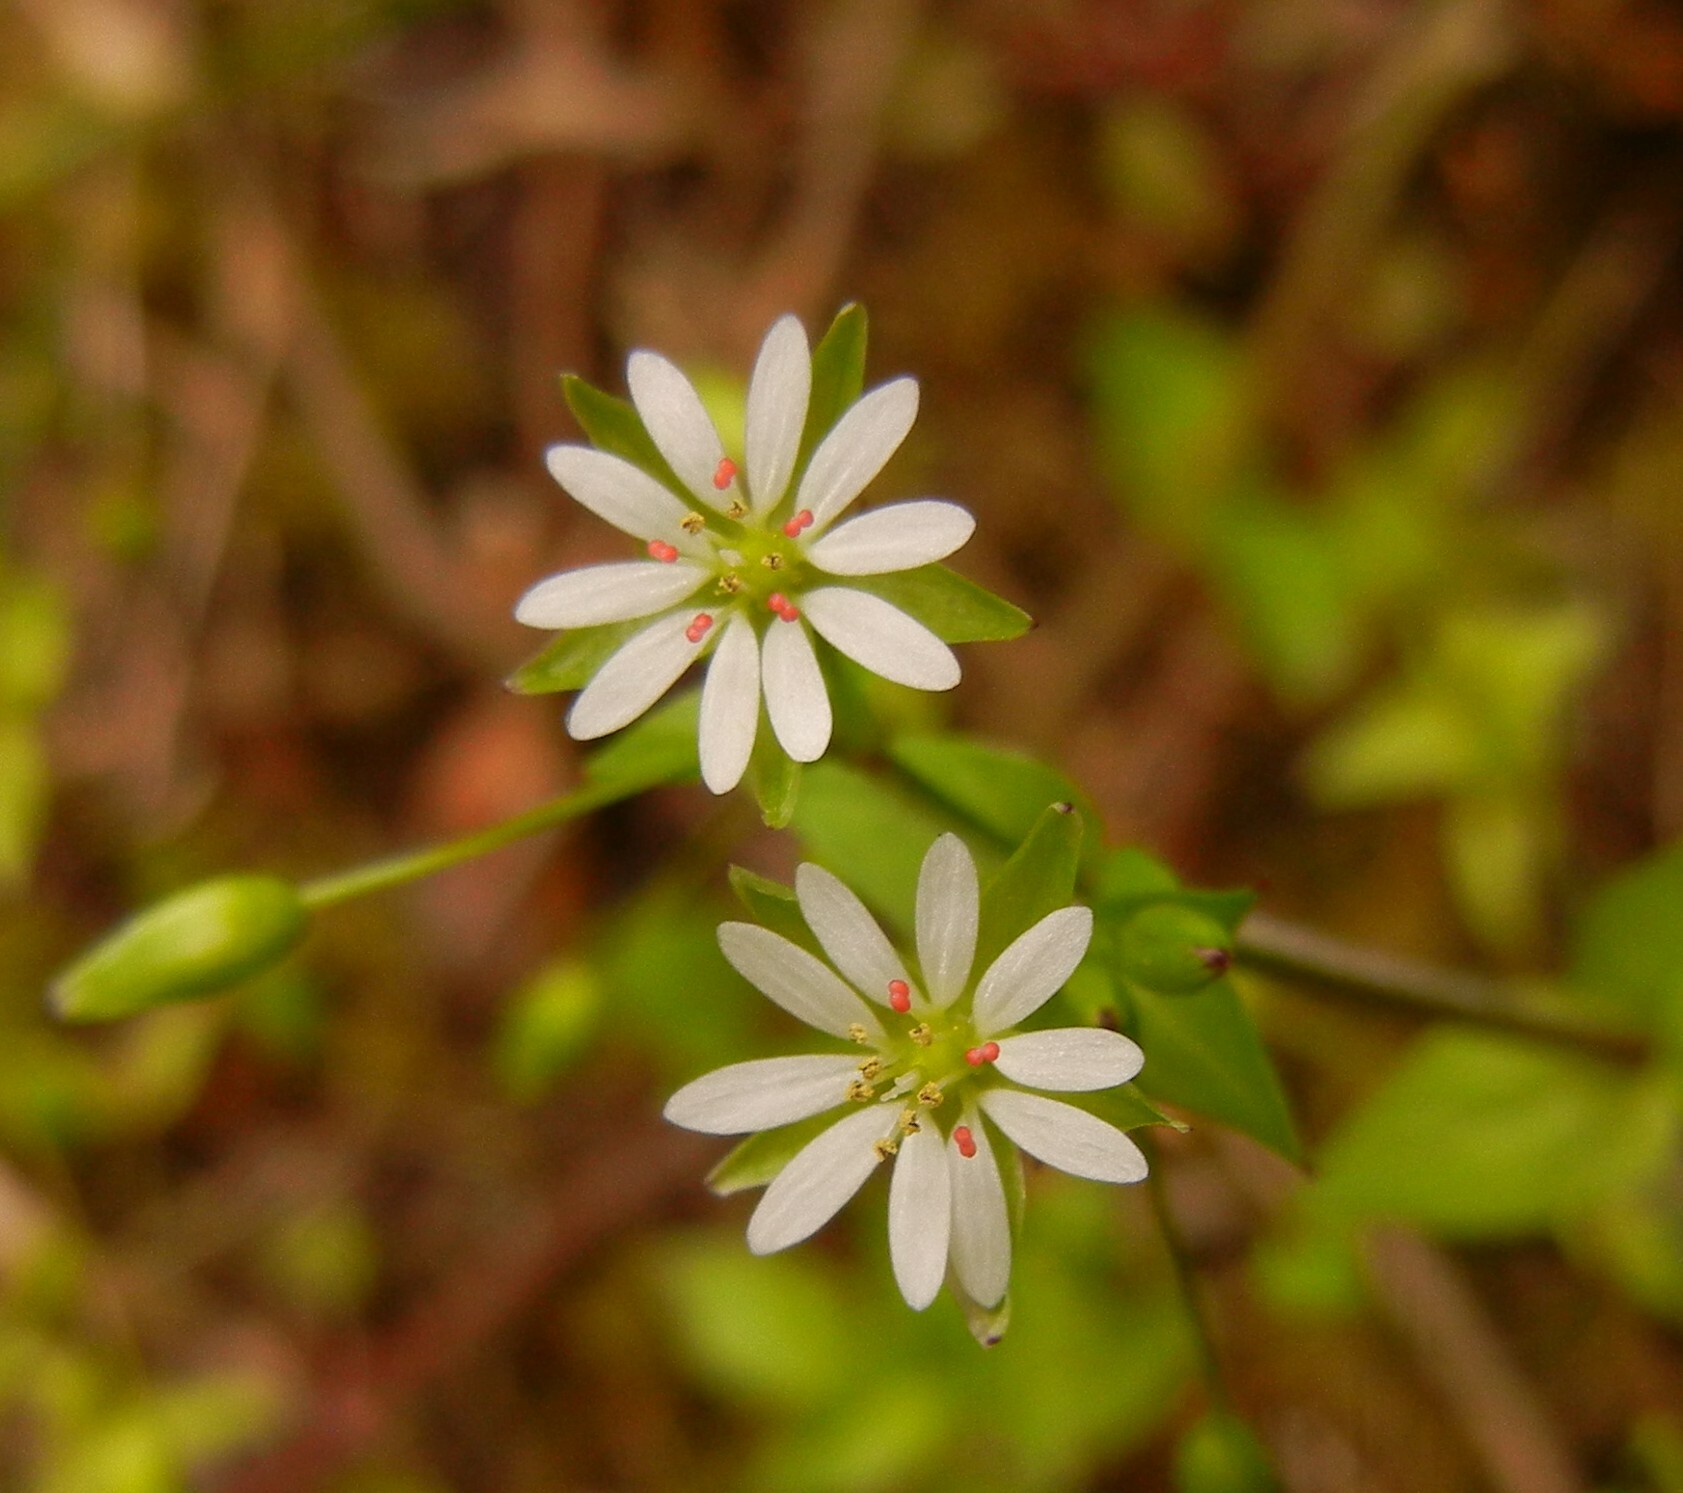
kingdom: Plantae
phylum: Tracheophyta
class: Magnoliopsida
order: Caryophyllales
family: Caryophyllaceae
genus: Stellaria
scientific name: Stellaria neglecta
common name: Greater chickweed
